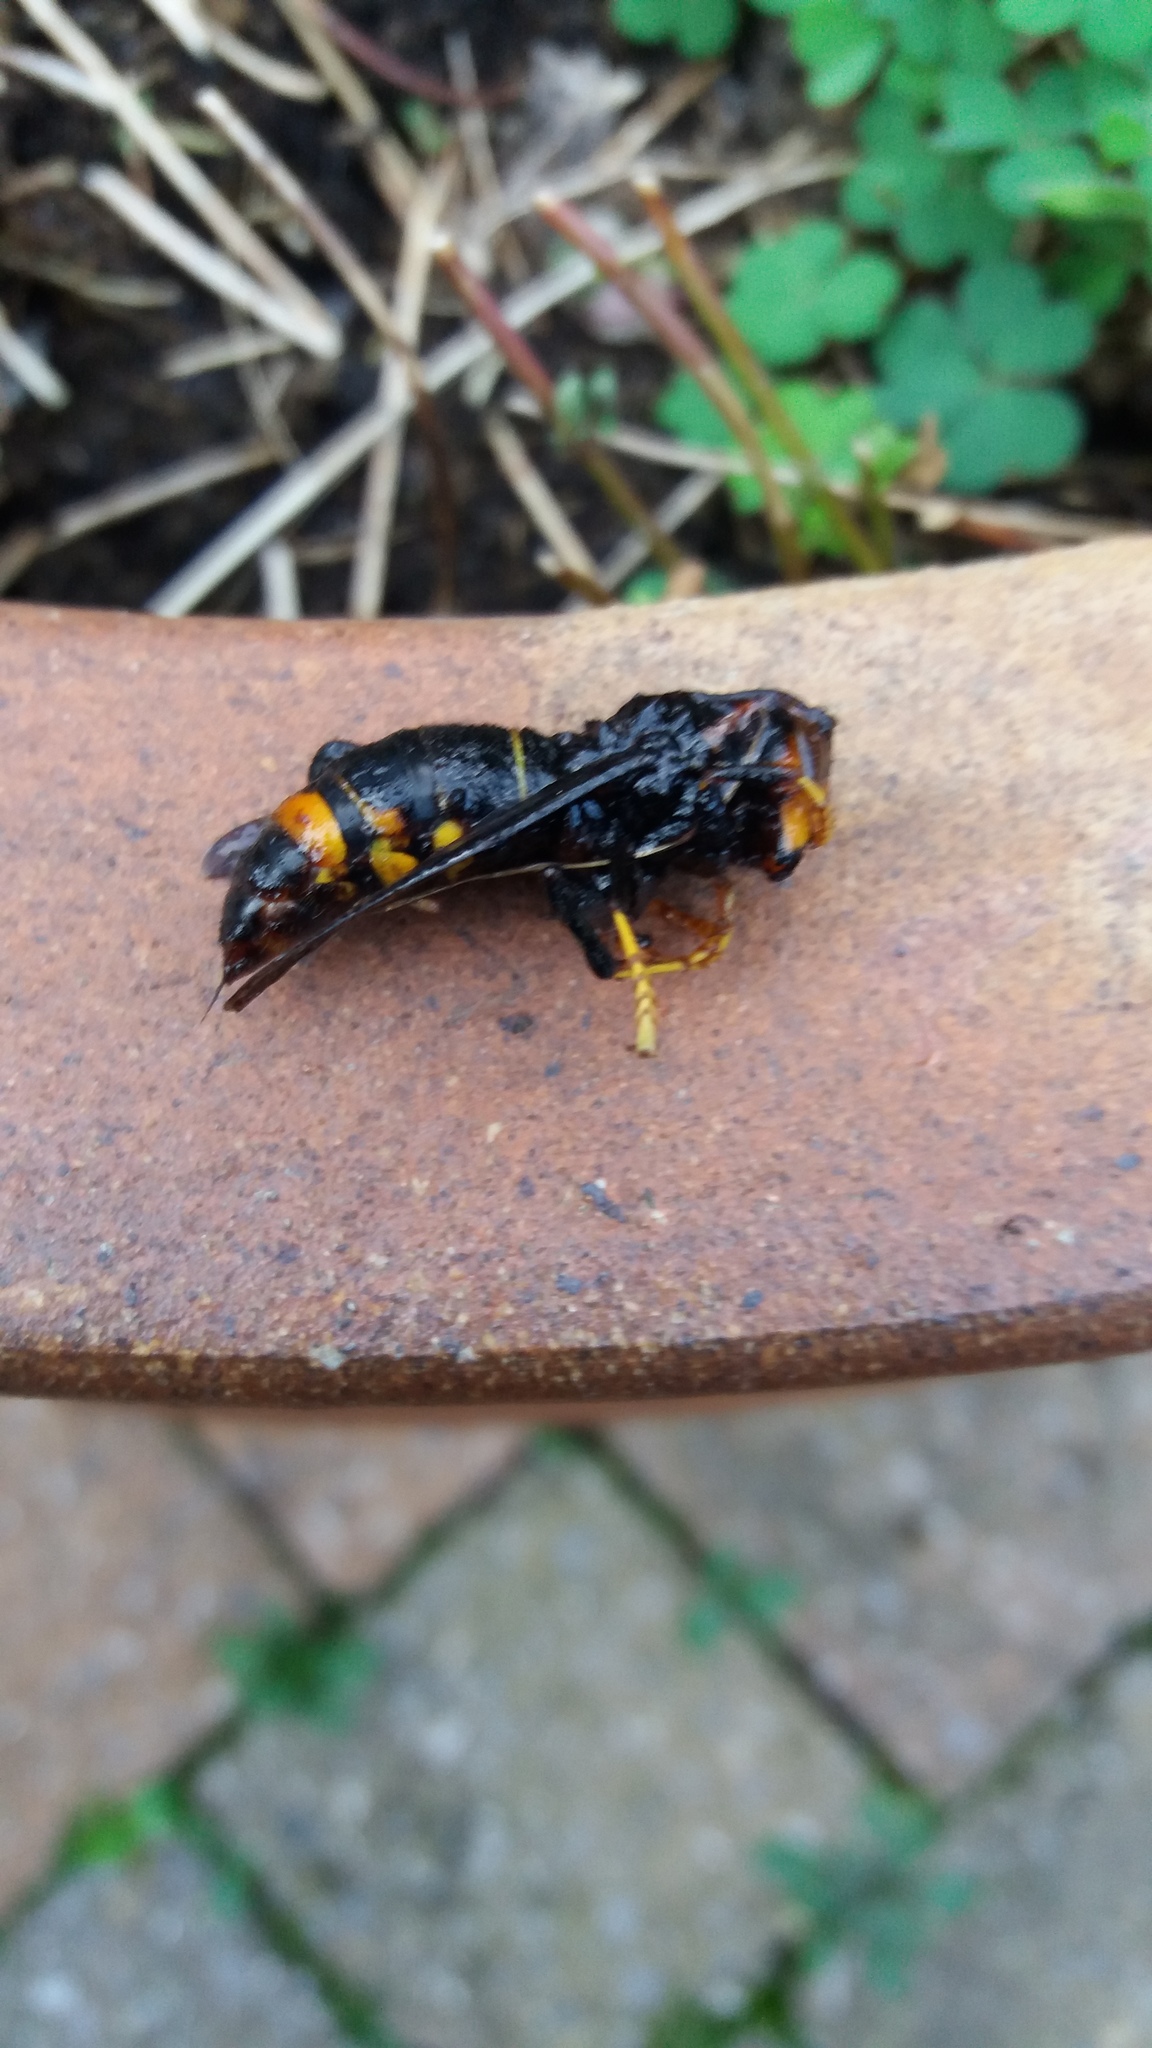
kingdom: Animalia
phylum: Arthropoda
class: Insecta
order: Hymenoptera
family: Vespidae
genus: Vespa
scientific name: Vespa velutina
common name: Asian hornet
